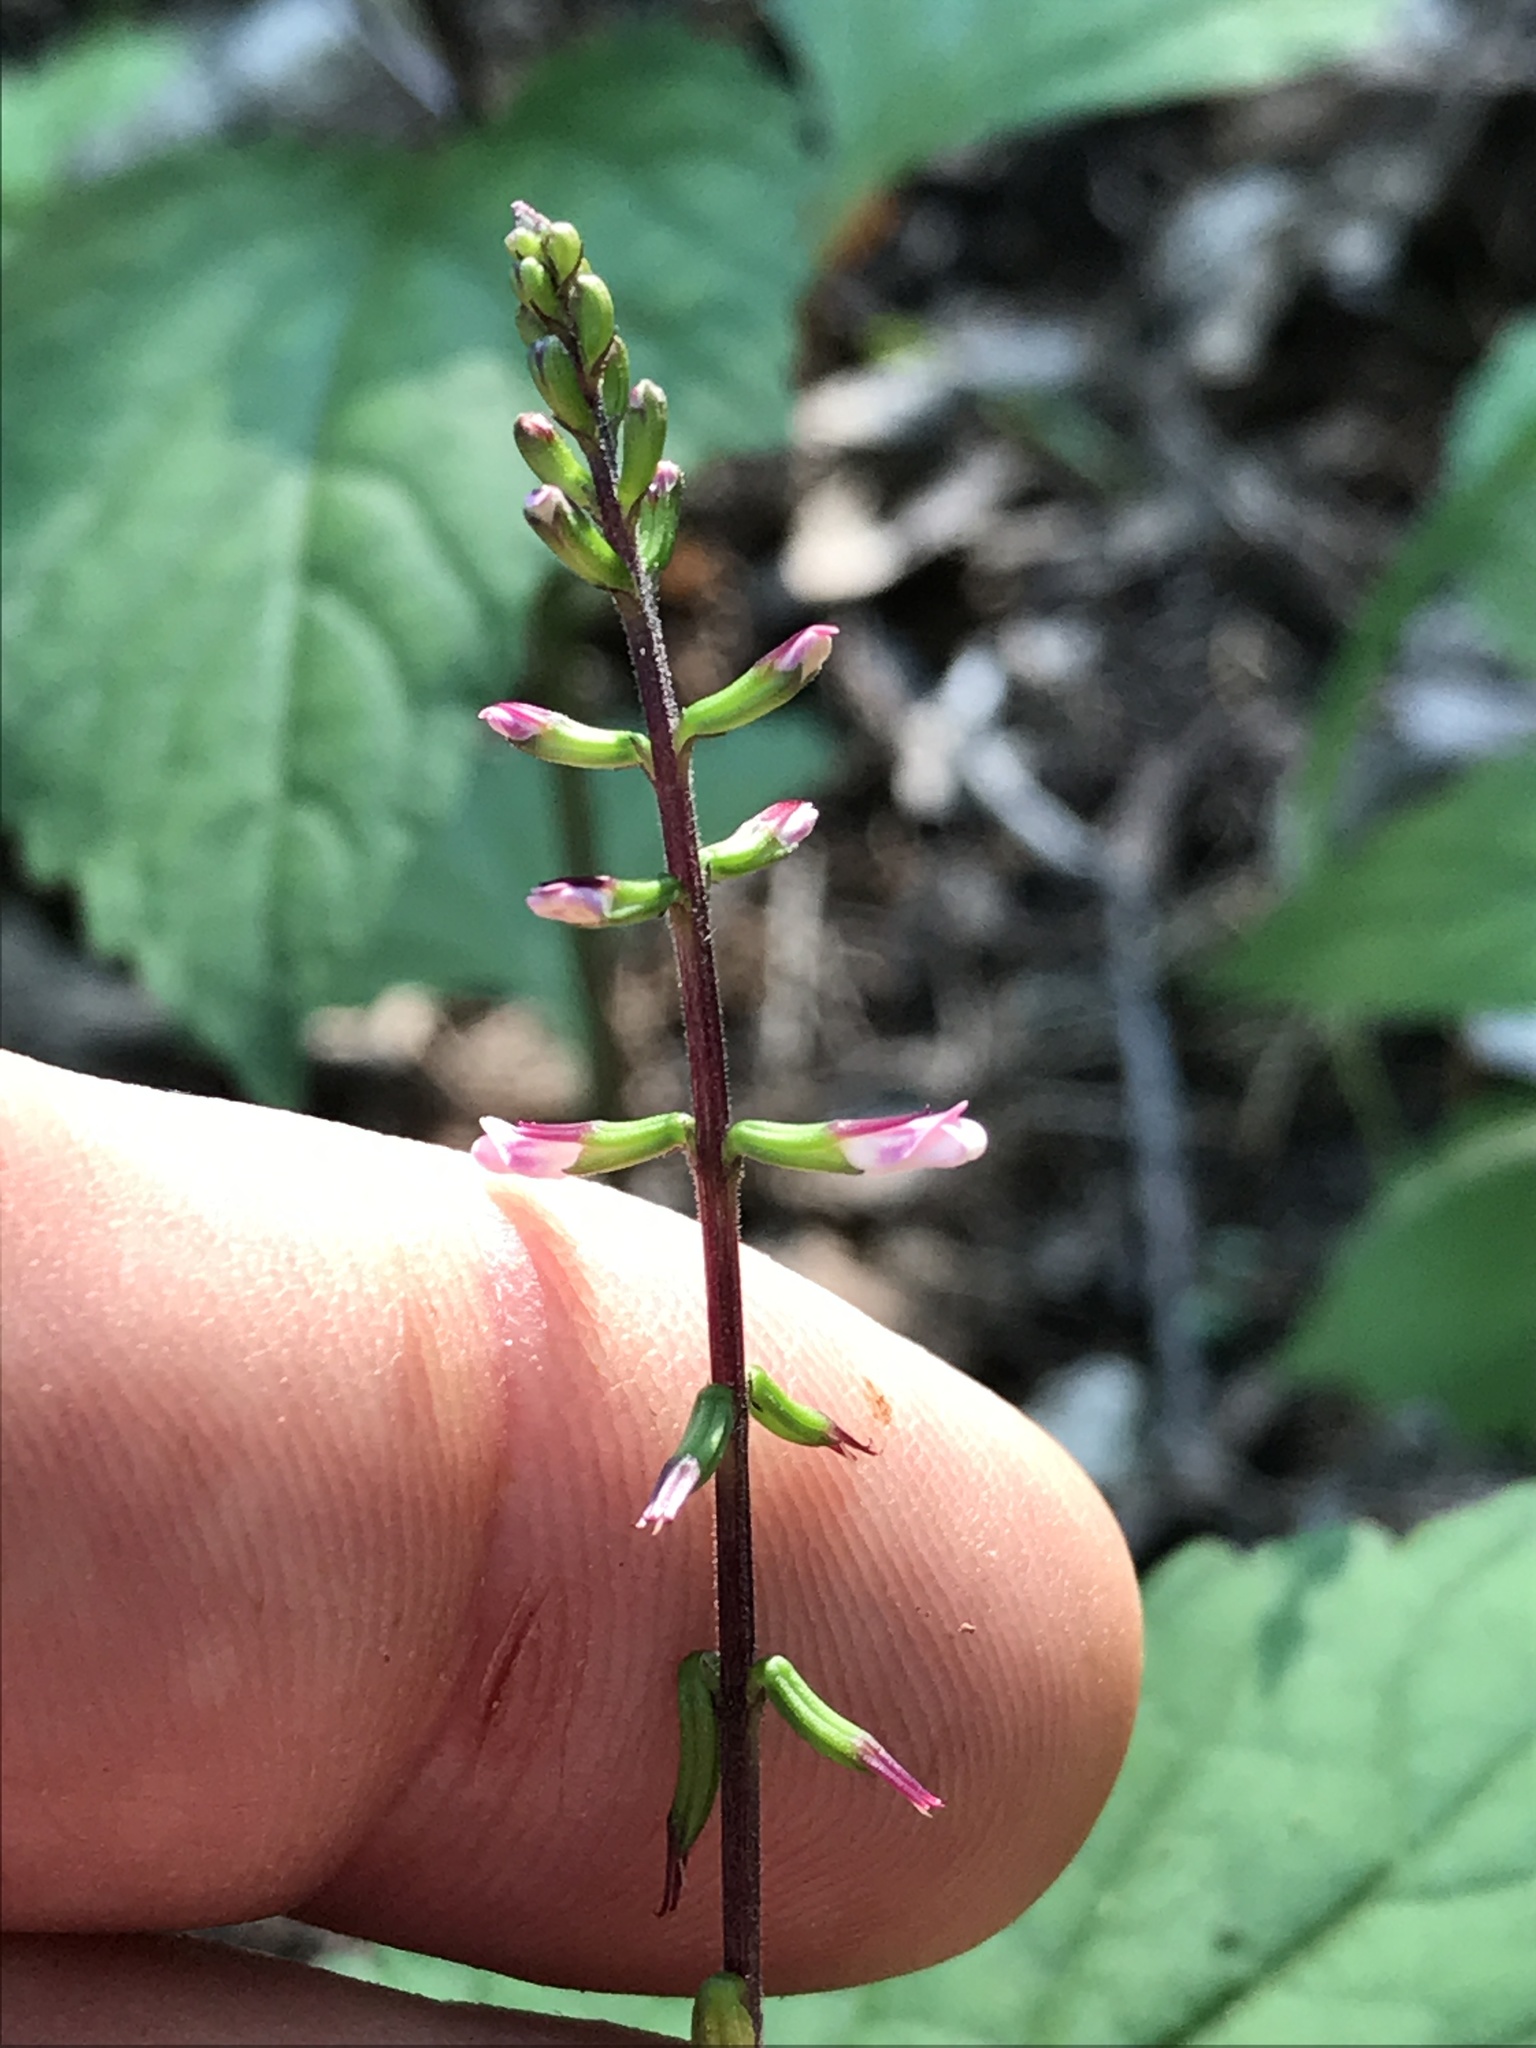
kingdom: Plantae
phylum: Tracheophyta
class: Magnoliopsida
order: Lamiales
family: Phrymaceae
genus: Phryma
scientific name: Phryma leptostachya
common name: American lopseed
